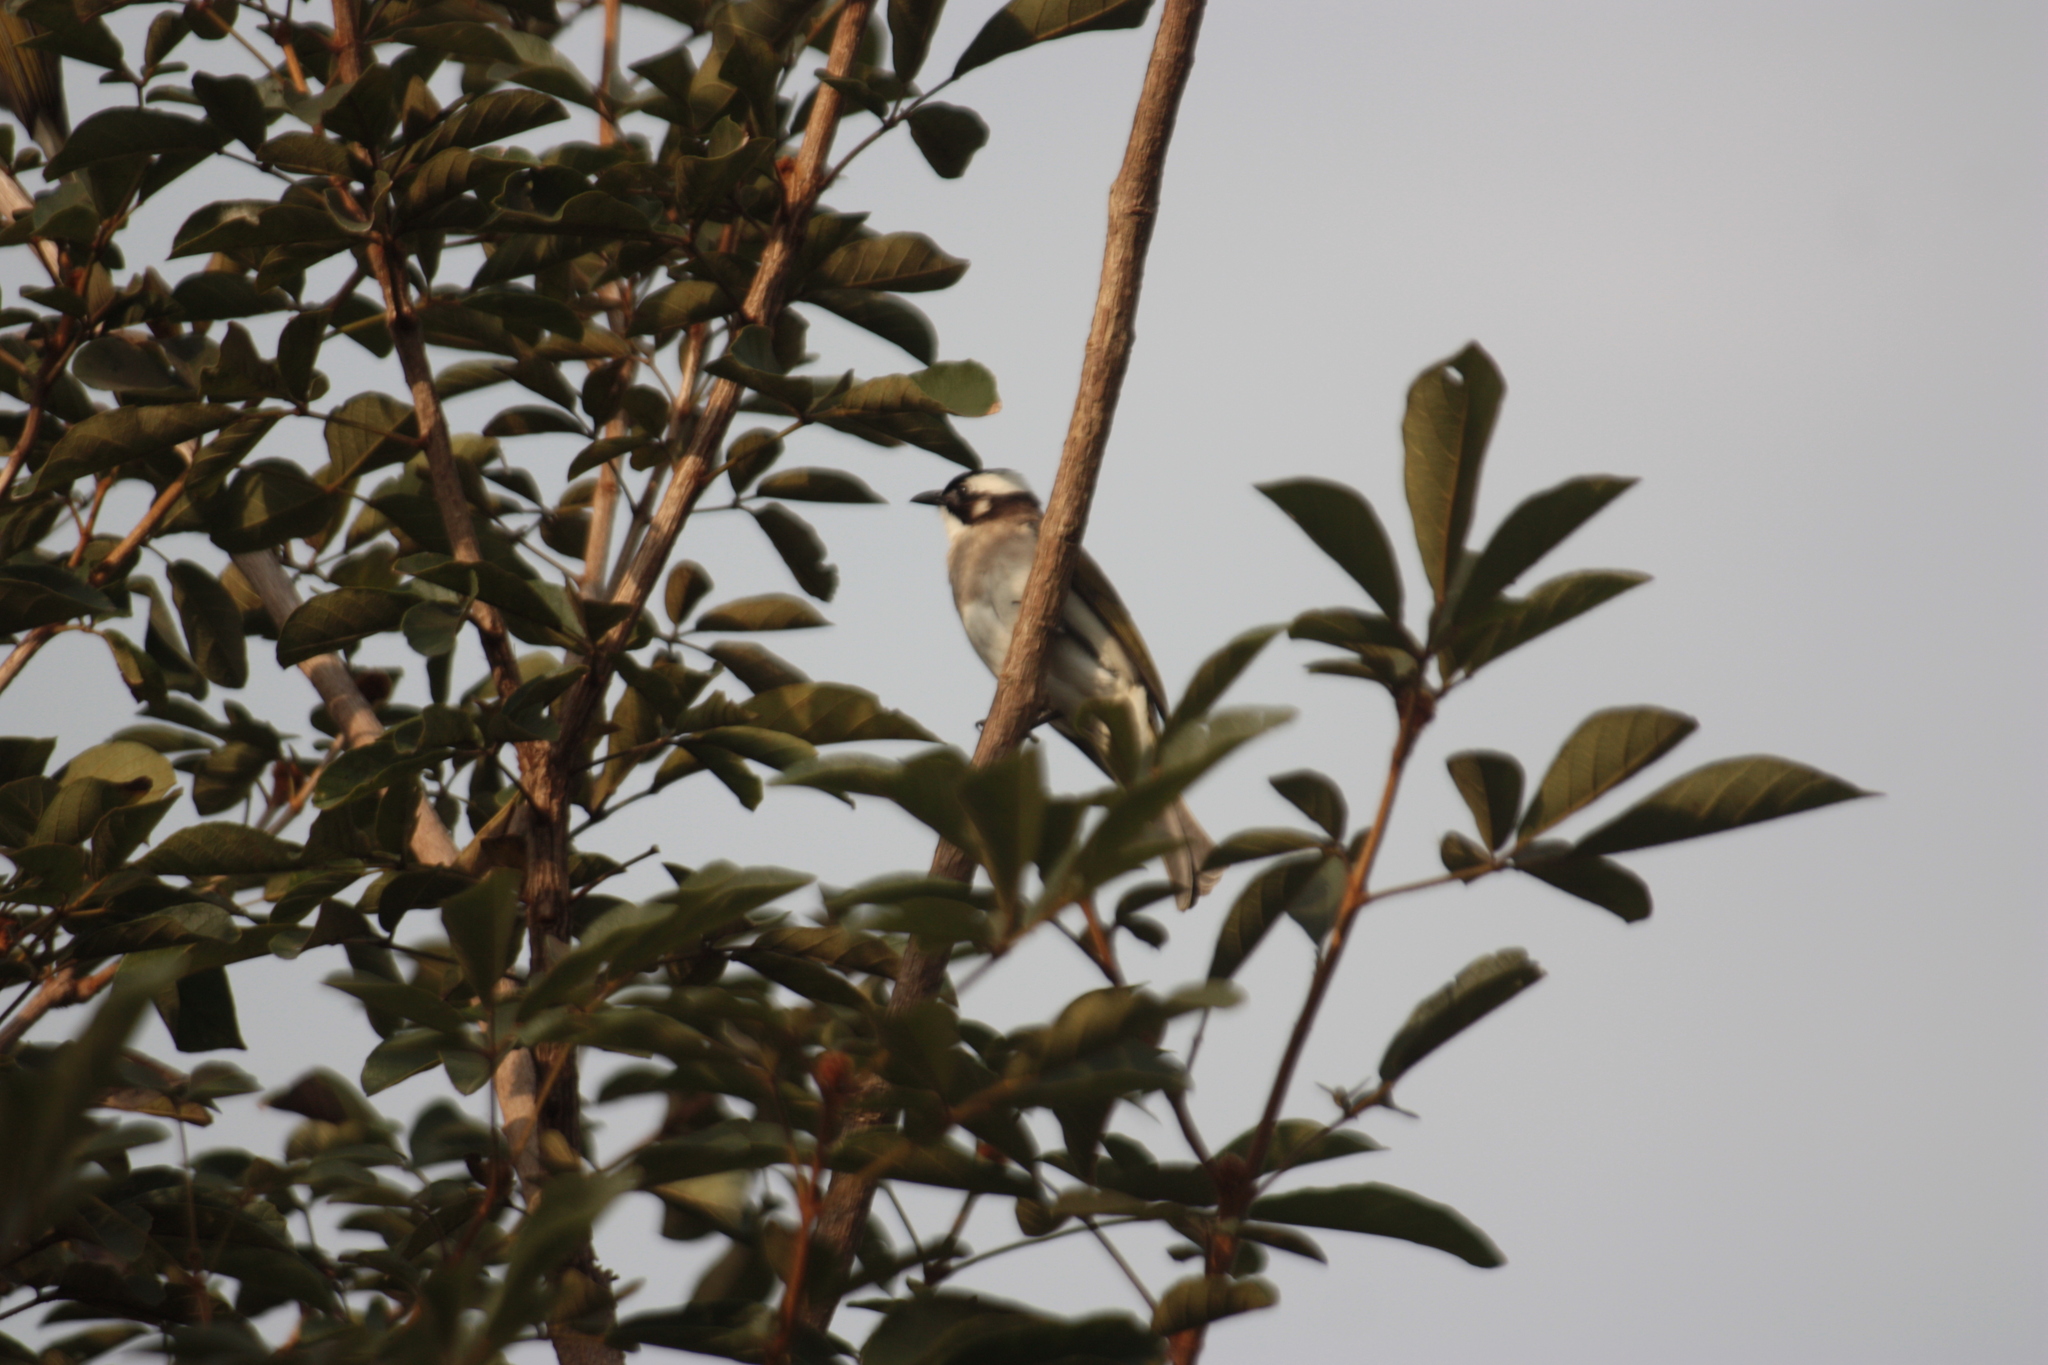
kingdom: Animalia
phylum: Chordata
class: Aves
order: Passeriformes
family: Pycnonotidae
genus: Pycnonotus
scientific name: Pycnonotus sinensis
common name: Light-vented bulbul
